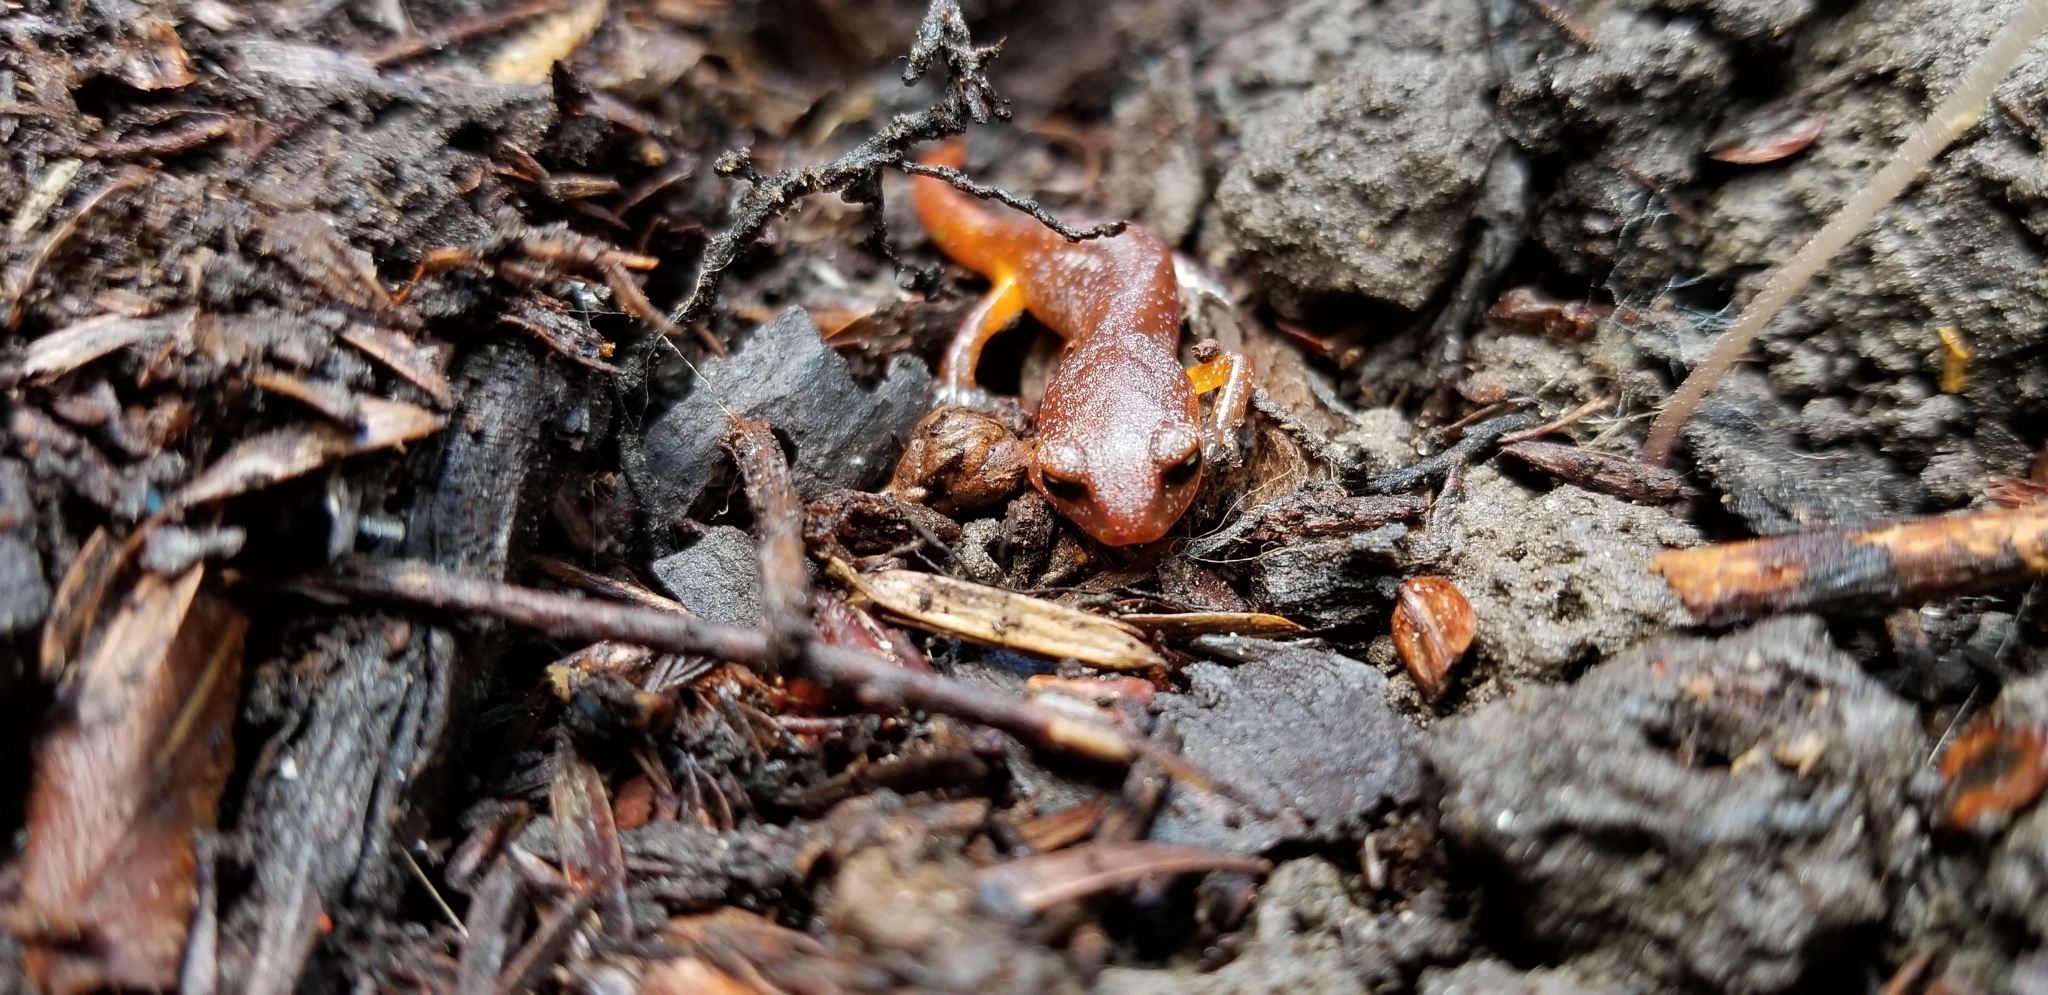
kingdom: Animalia
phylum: Chordata
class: Amphibia
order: Caudata
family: Plethodontidae
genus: Ensatina
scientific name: Ensatina eschscholtzii
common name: Ensatina
